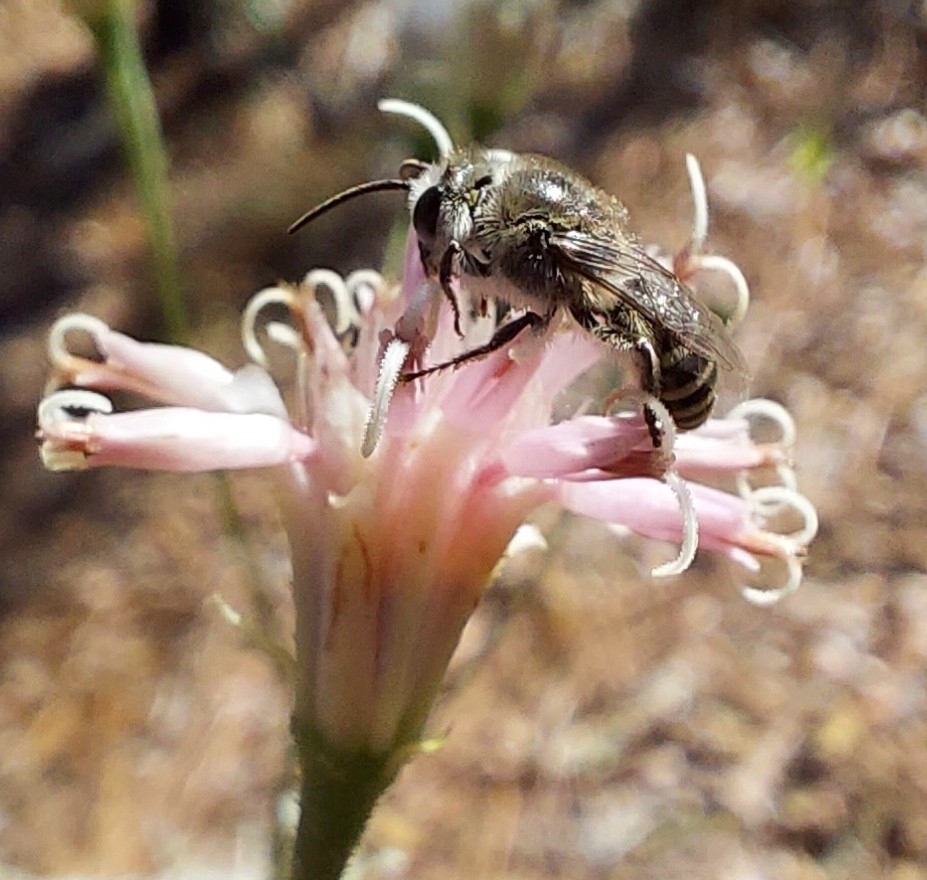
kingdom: Animalia
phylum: Arthropoda
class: Insecta
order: Hymenoptera
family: Colletidae
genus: Colletes
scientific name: Colletes longifacies
